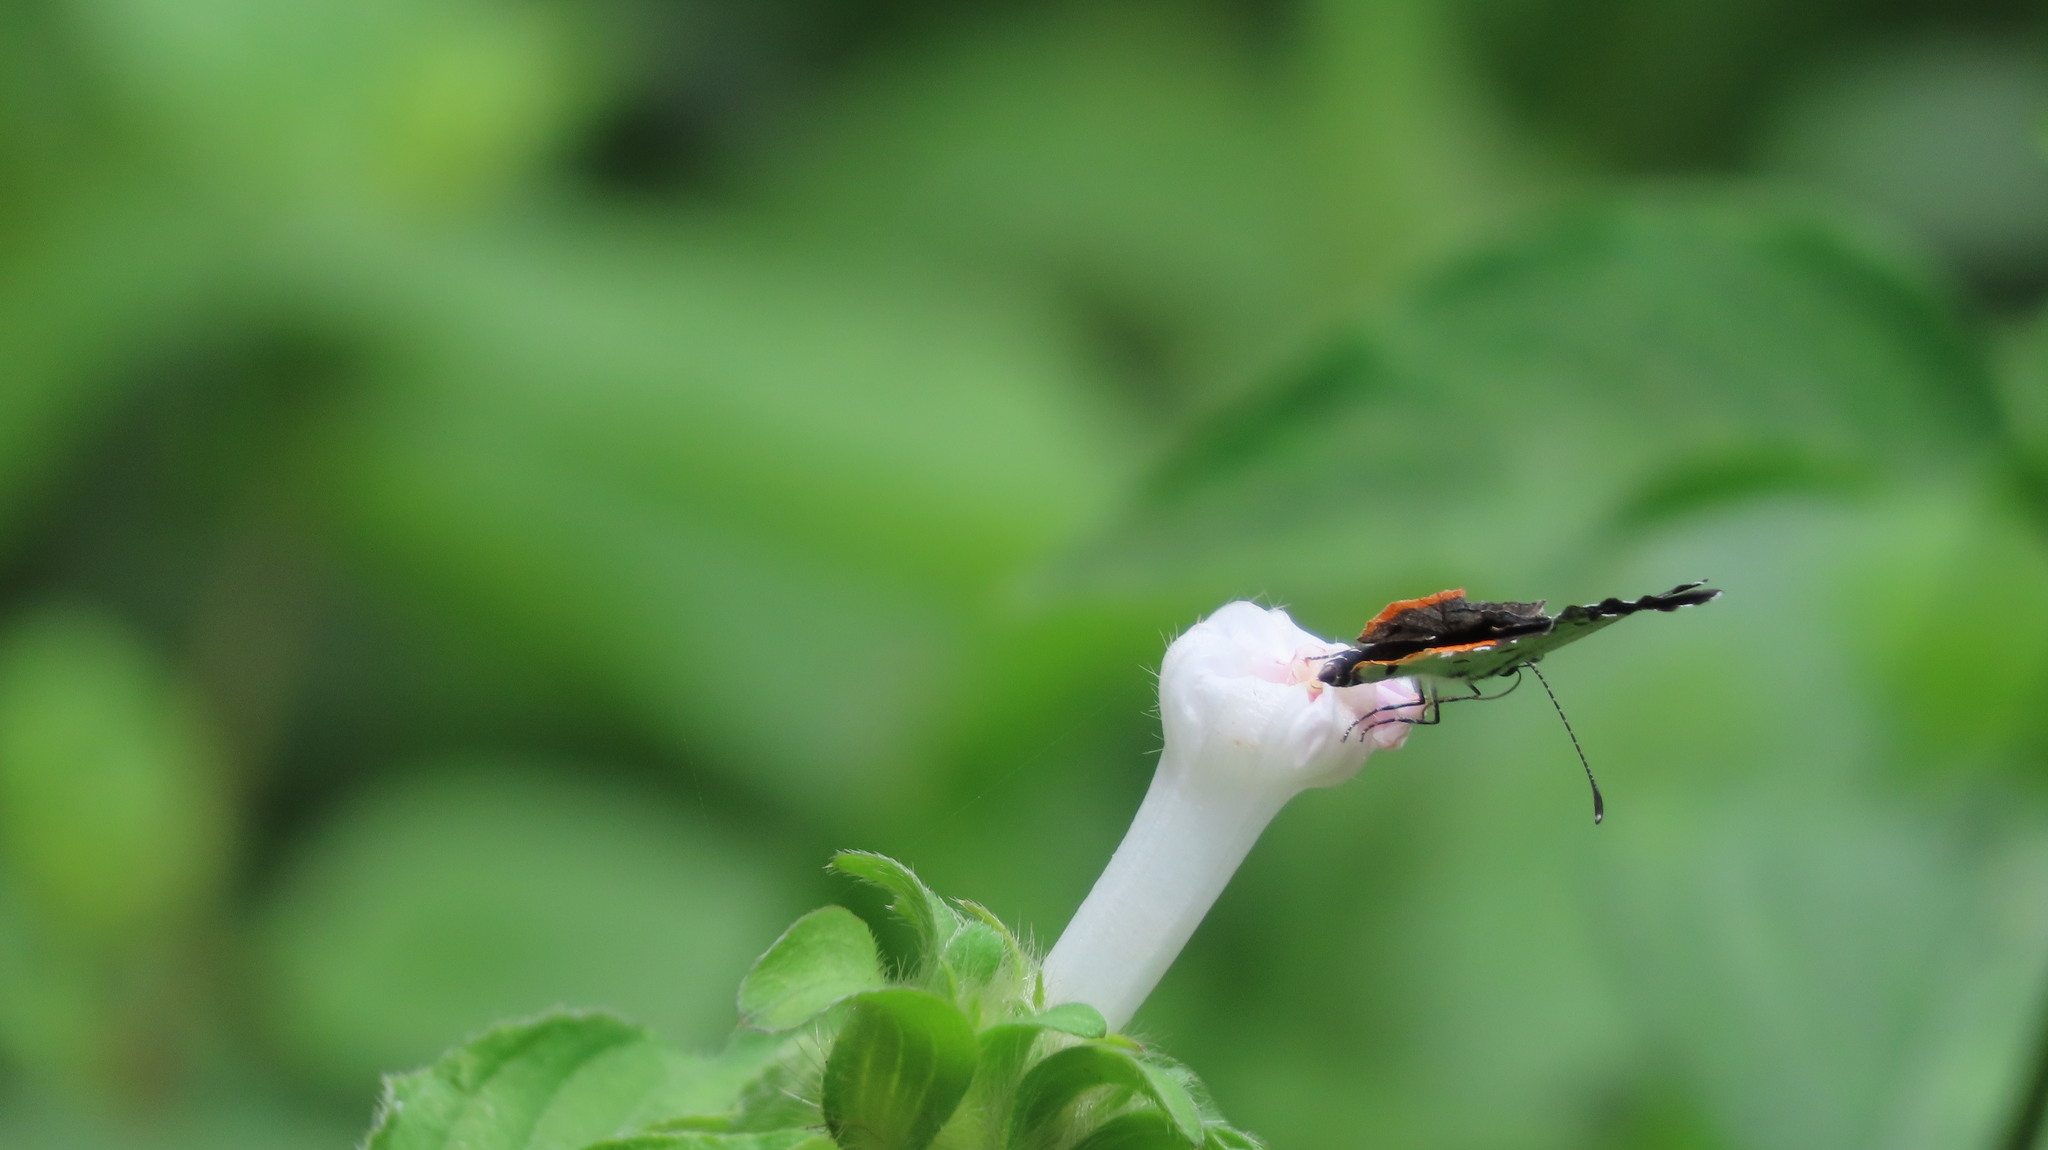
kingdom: Animalia
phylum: Arthropoda
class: Insecta
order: Lepidoptera
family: Lycaenidae
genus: Talicada
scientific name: Talicada nyseus
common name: Red pierrot
